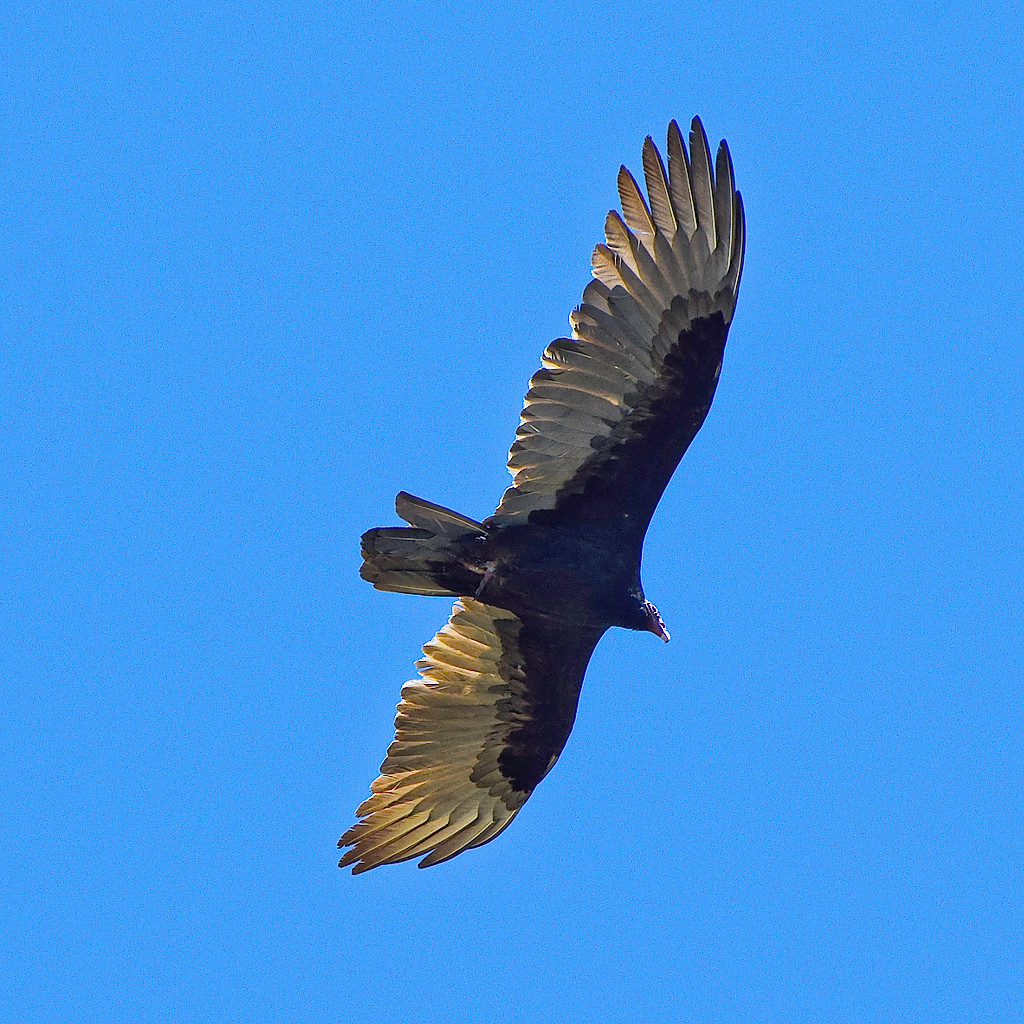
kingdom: Animalia
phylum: Chordata
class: Aves
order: Accipitriformes
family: Cathartidae
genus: Cathartes
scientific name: Cathartes aura
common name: Turkey vulture
